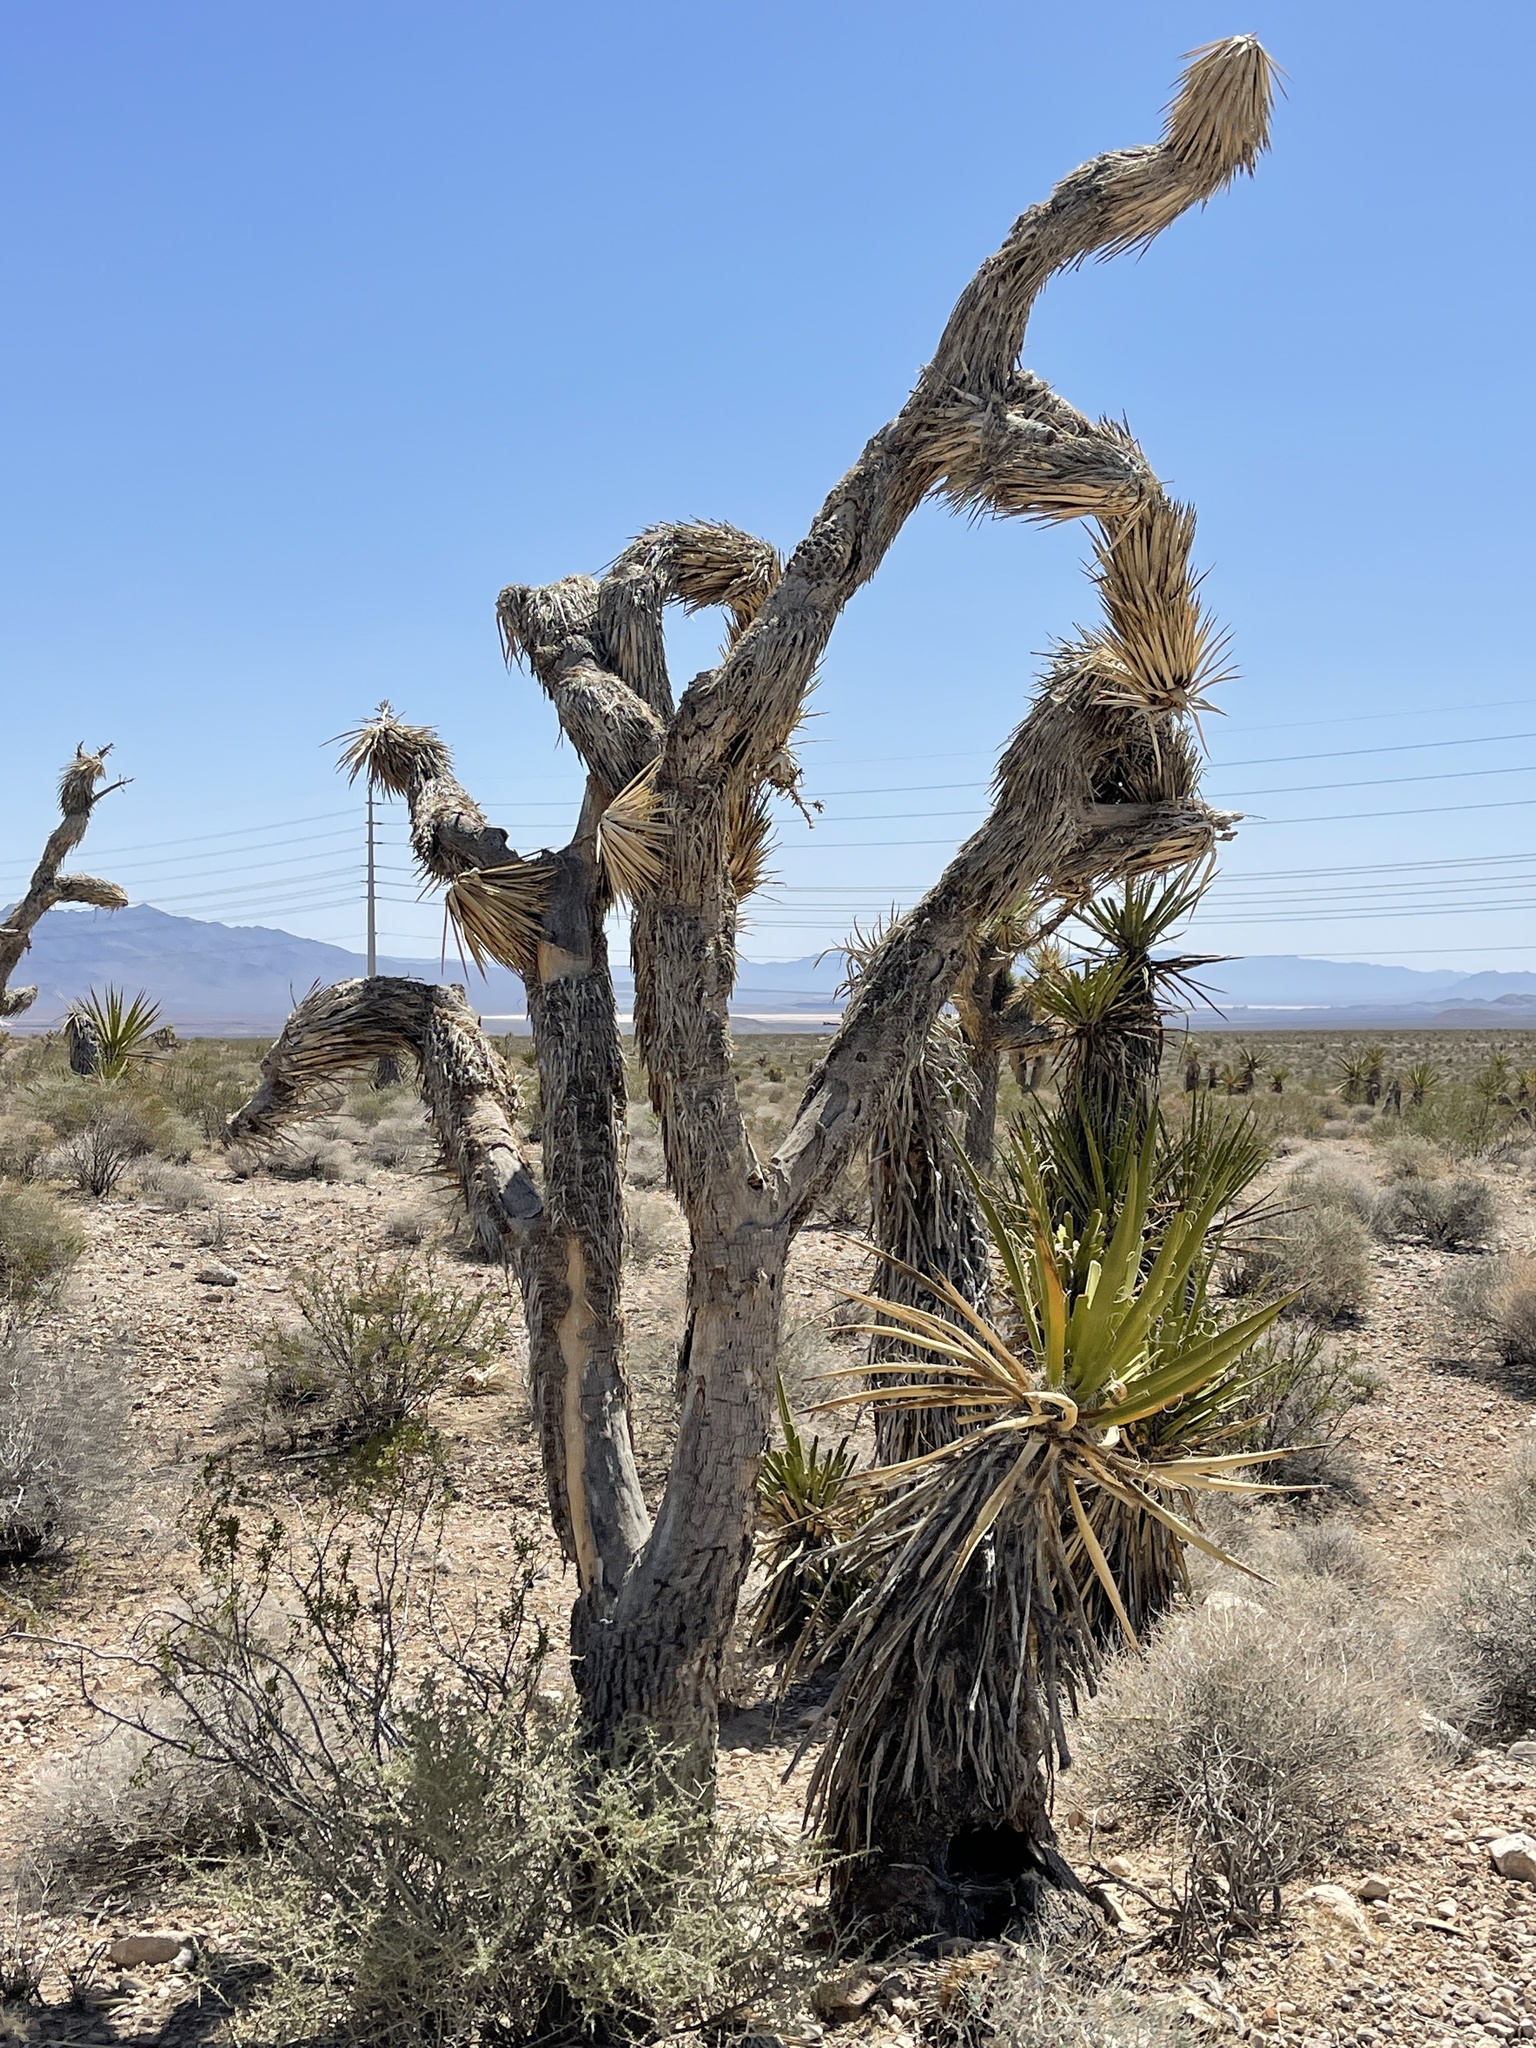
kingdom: Plantae
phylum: Tracheophyta
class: Liliopsida
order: Asparagales
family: Asparagaceae
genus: Yucca
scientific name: Yucca brevifolia
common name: Joshua tree
